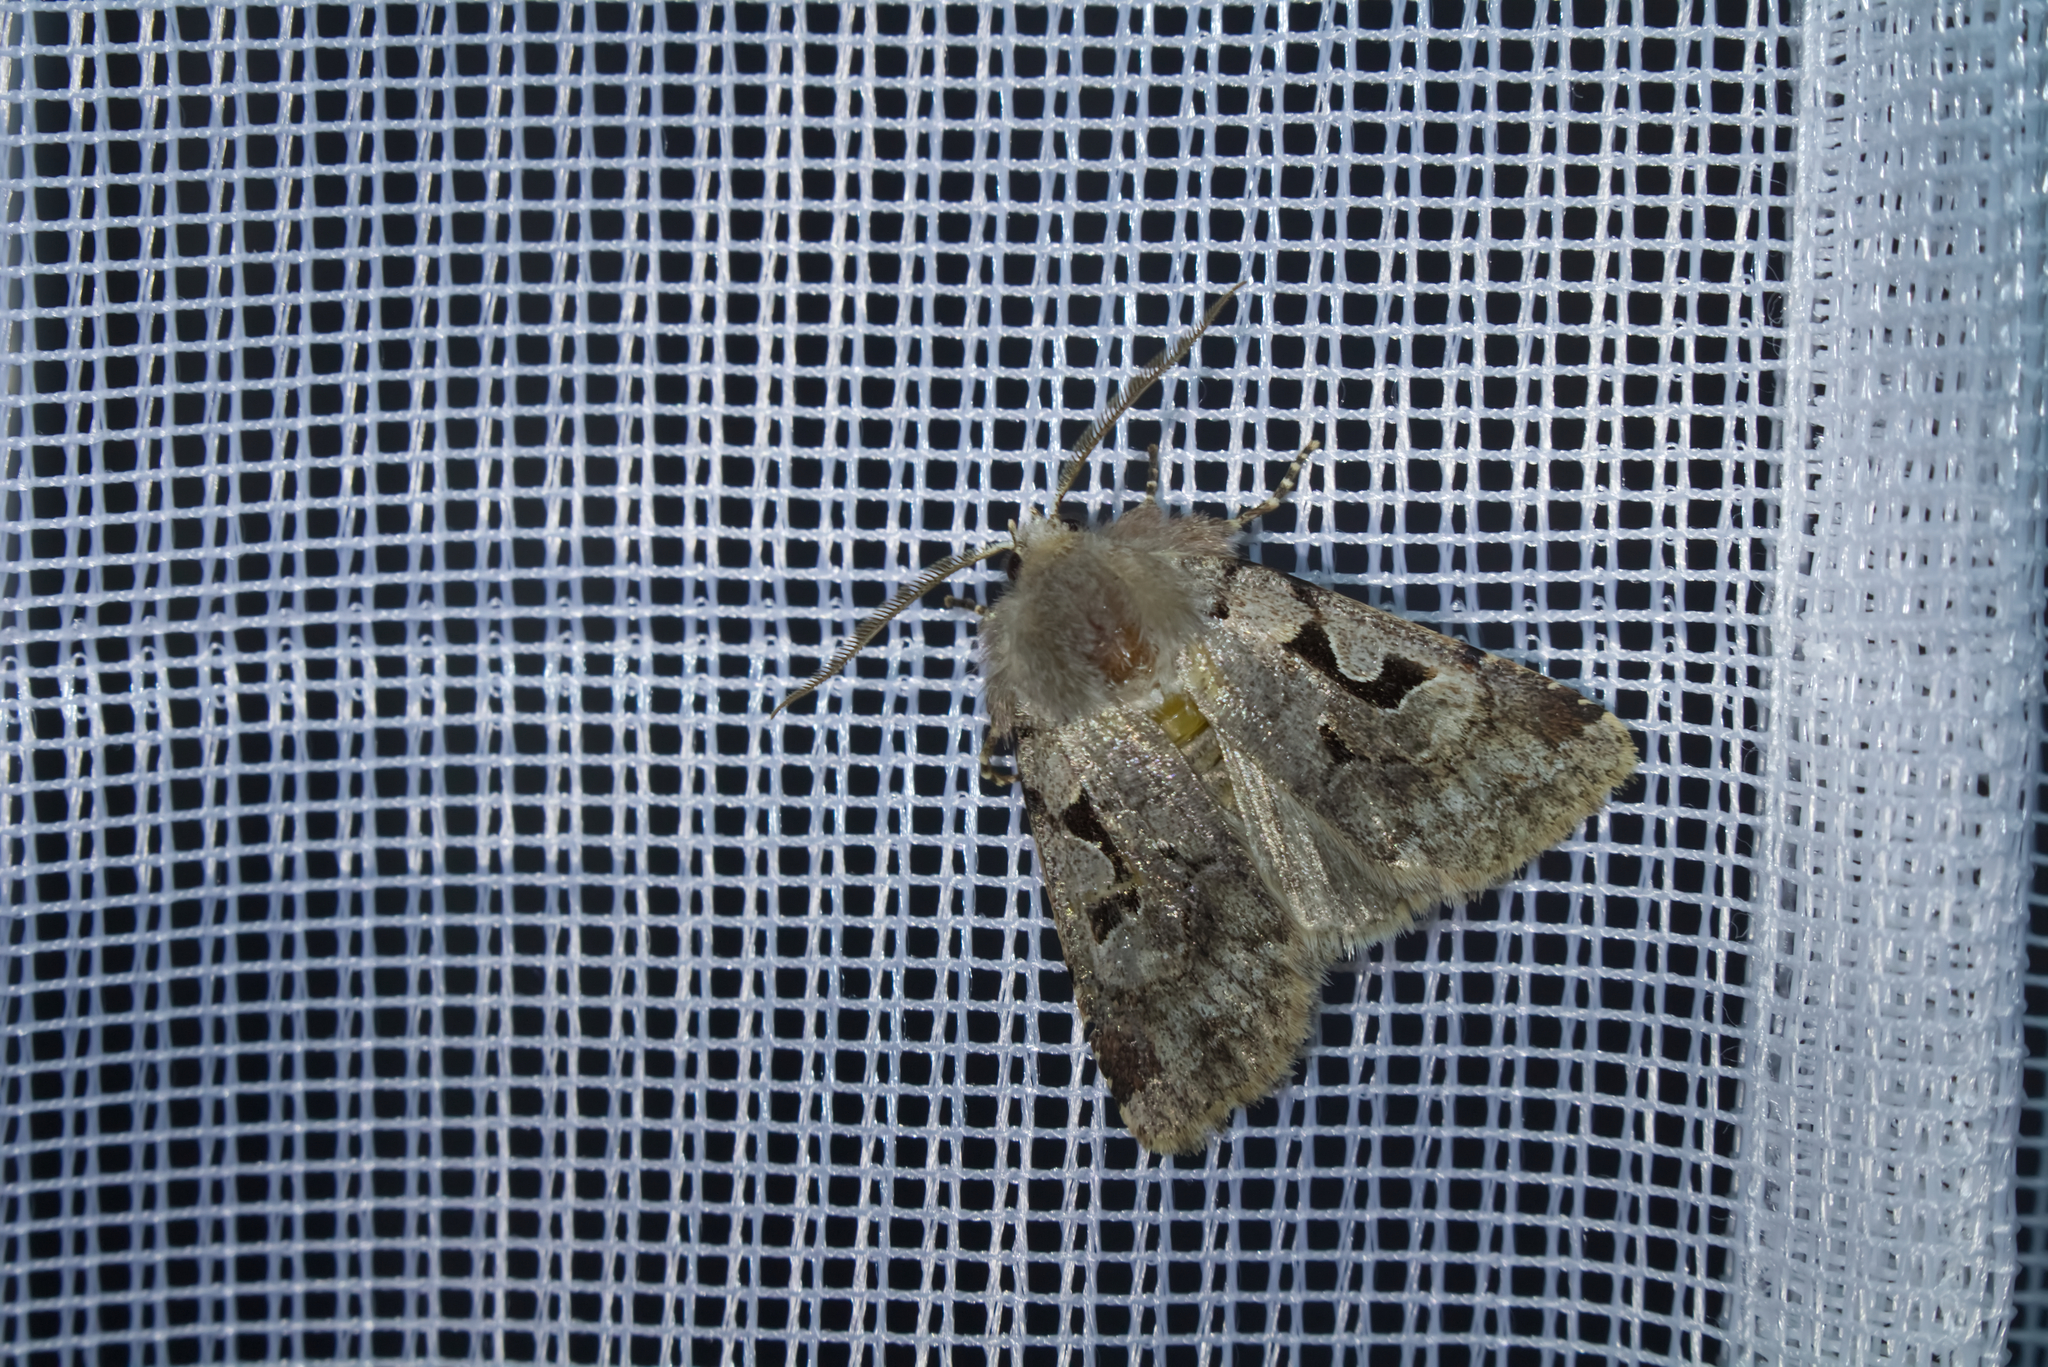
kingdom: Animalia
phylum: Arthropoda
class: Insecta
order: Lepidoptera
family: Noctuidae
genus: Orthosia
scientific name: Orthosia gothica
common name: Hebrew character
